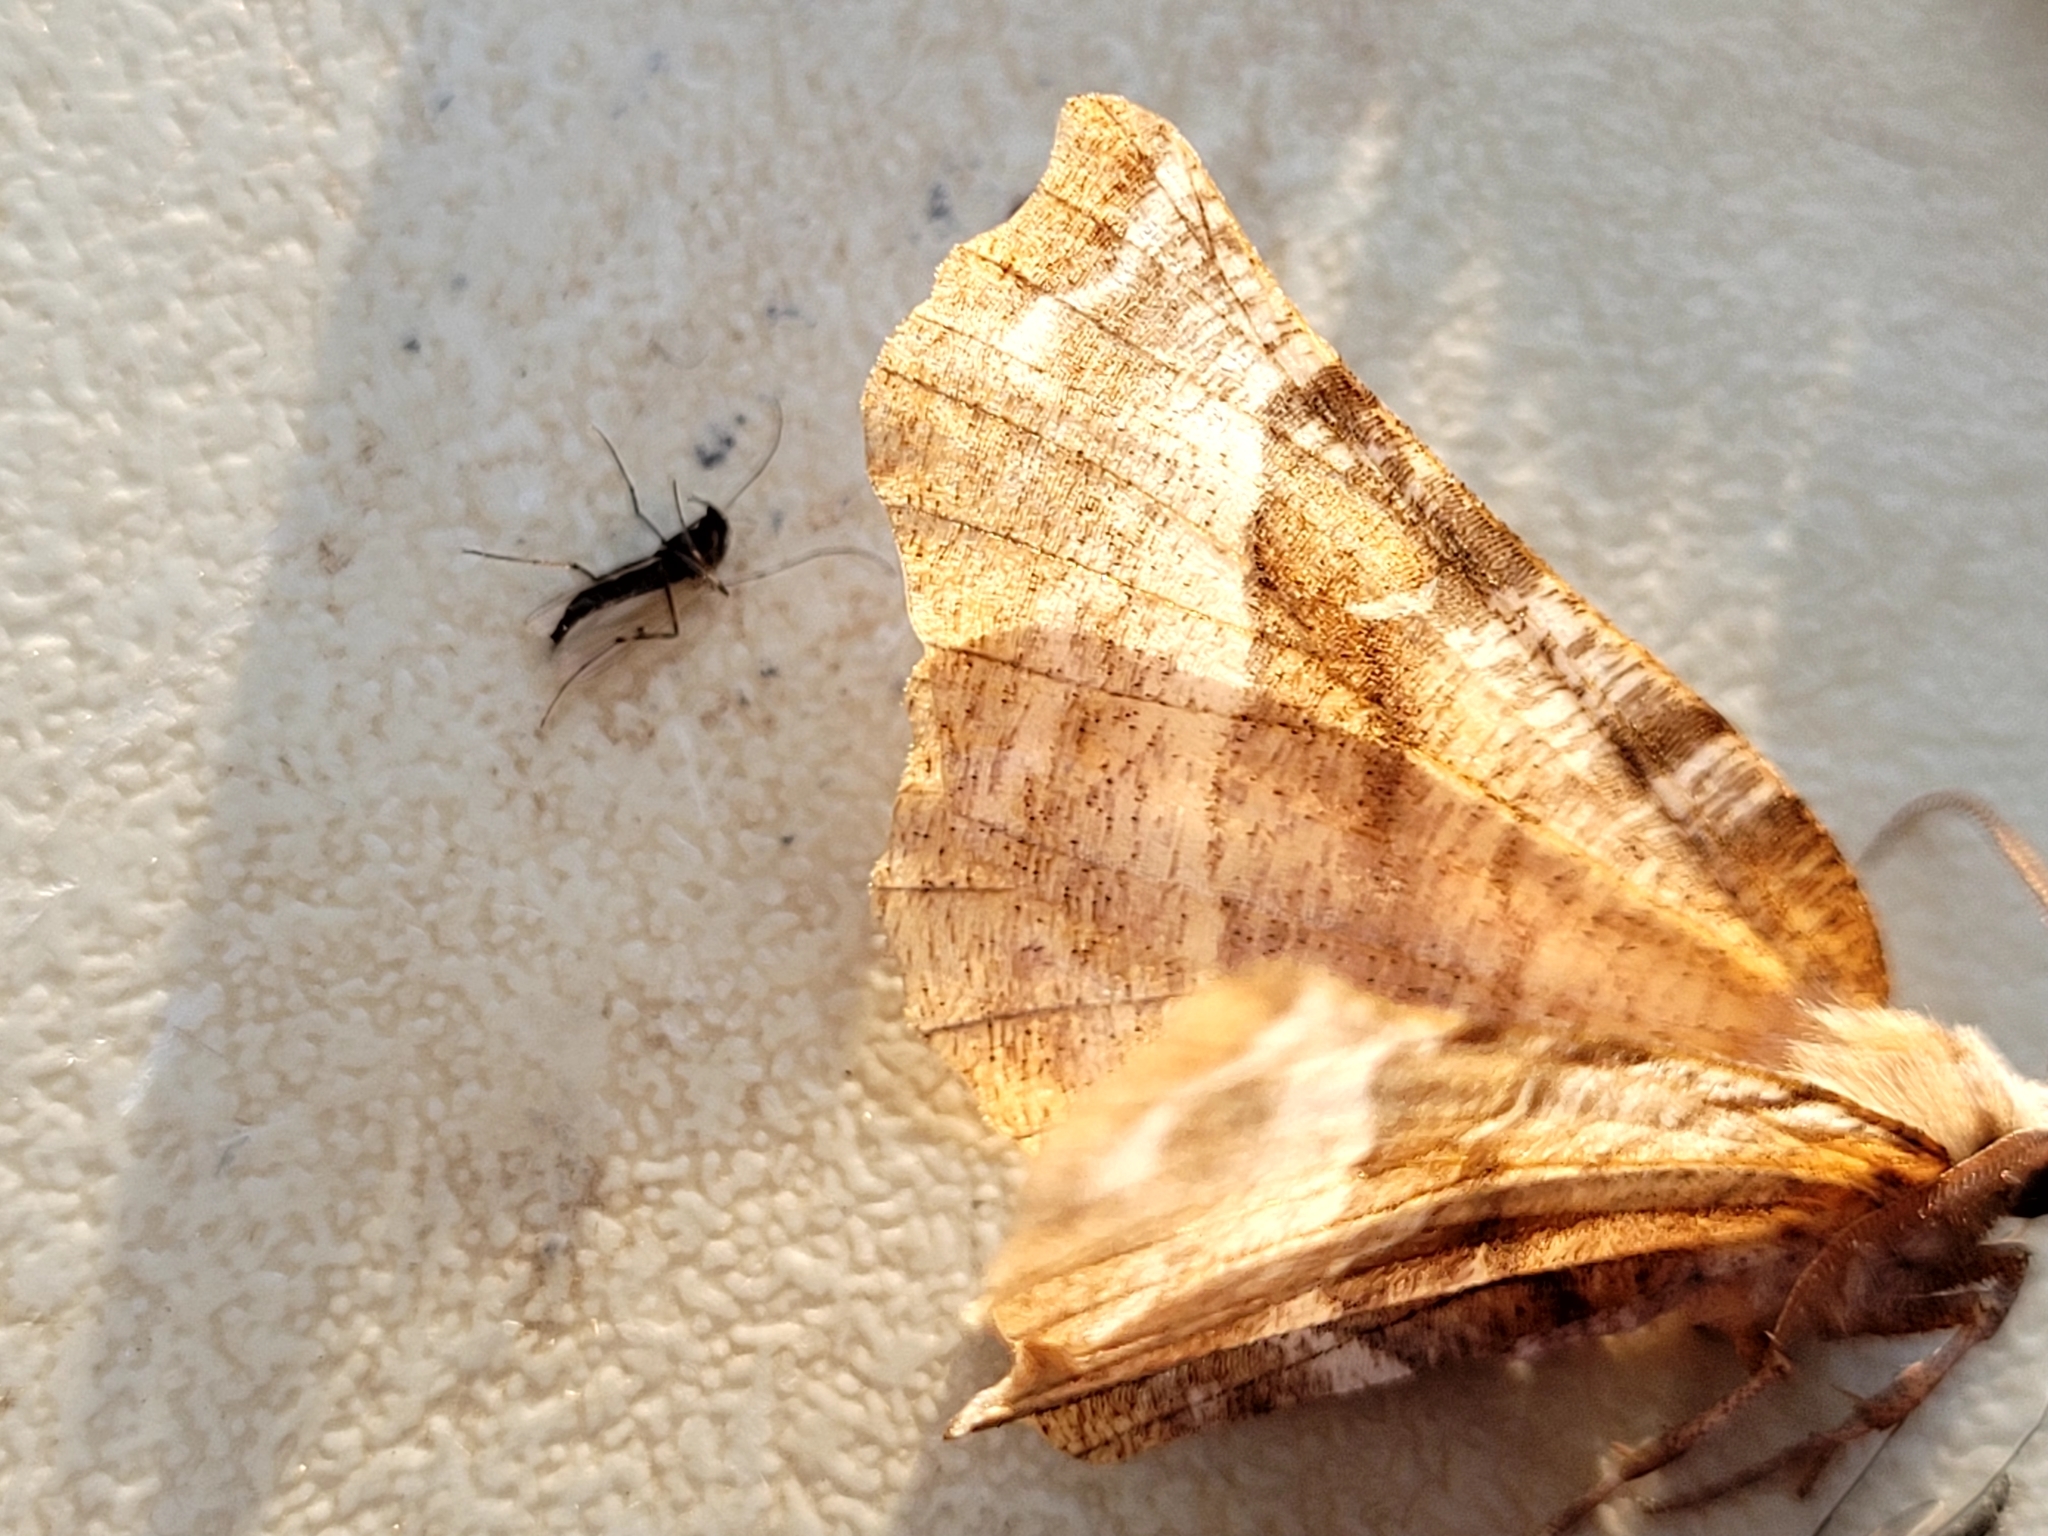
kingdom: Animalia
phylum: Arthropoda
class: Insecta
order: Lepidoptera
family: Geometridae
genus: Selenia
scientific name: Selenia kentaria
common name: Kent's geometer
